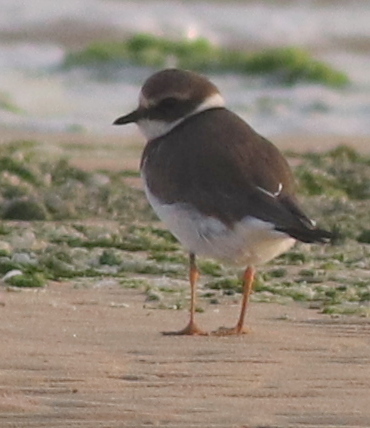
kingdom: Animalia
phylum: Chordata
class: Aves
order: Charadriiformes
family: Charadriidae
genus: Charadrius
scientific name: Charadrius hiaticula
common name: Common ringed plover
